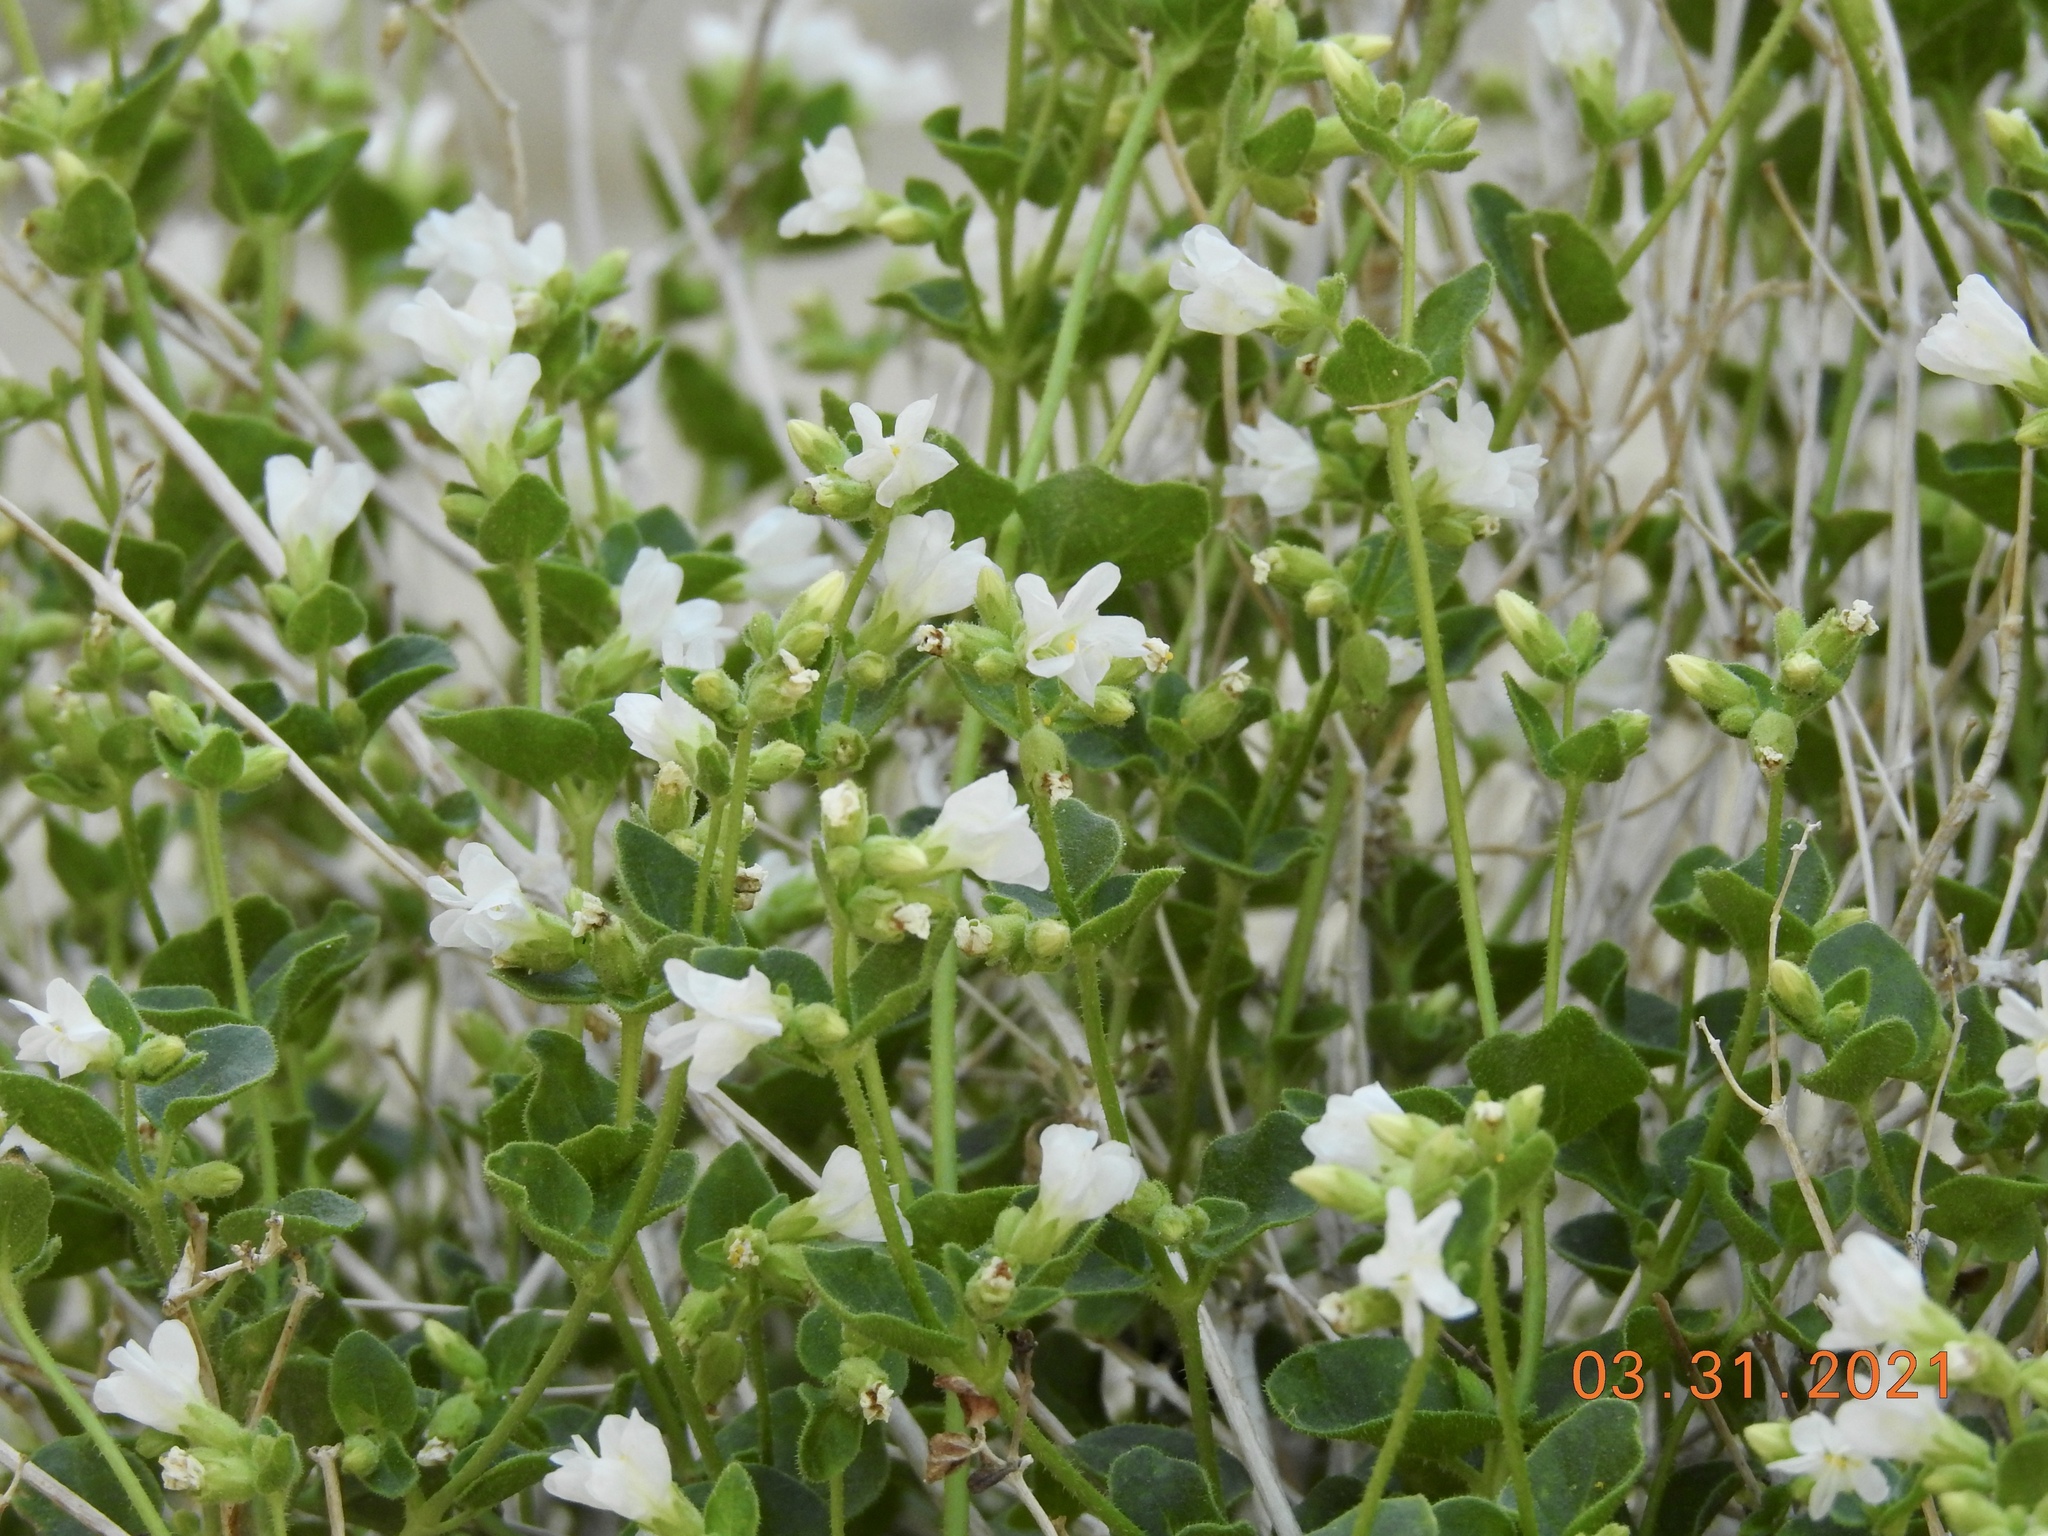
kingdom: Plantae
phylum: Tracheophyta
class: Magnoliopsida
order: Caryophyllales
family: Nyctaginaceae
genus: Mirabilis
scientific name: Mirabilis laevis
